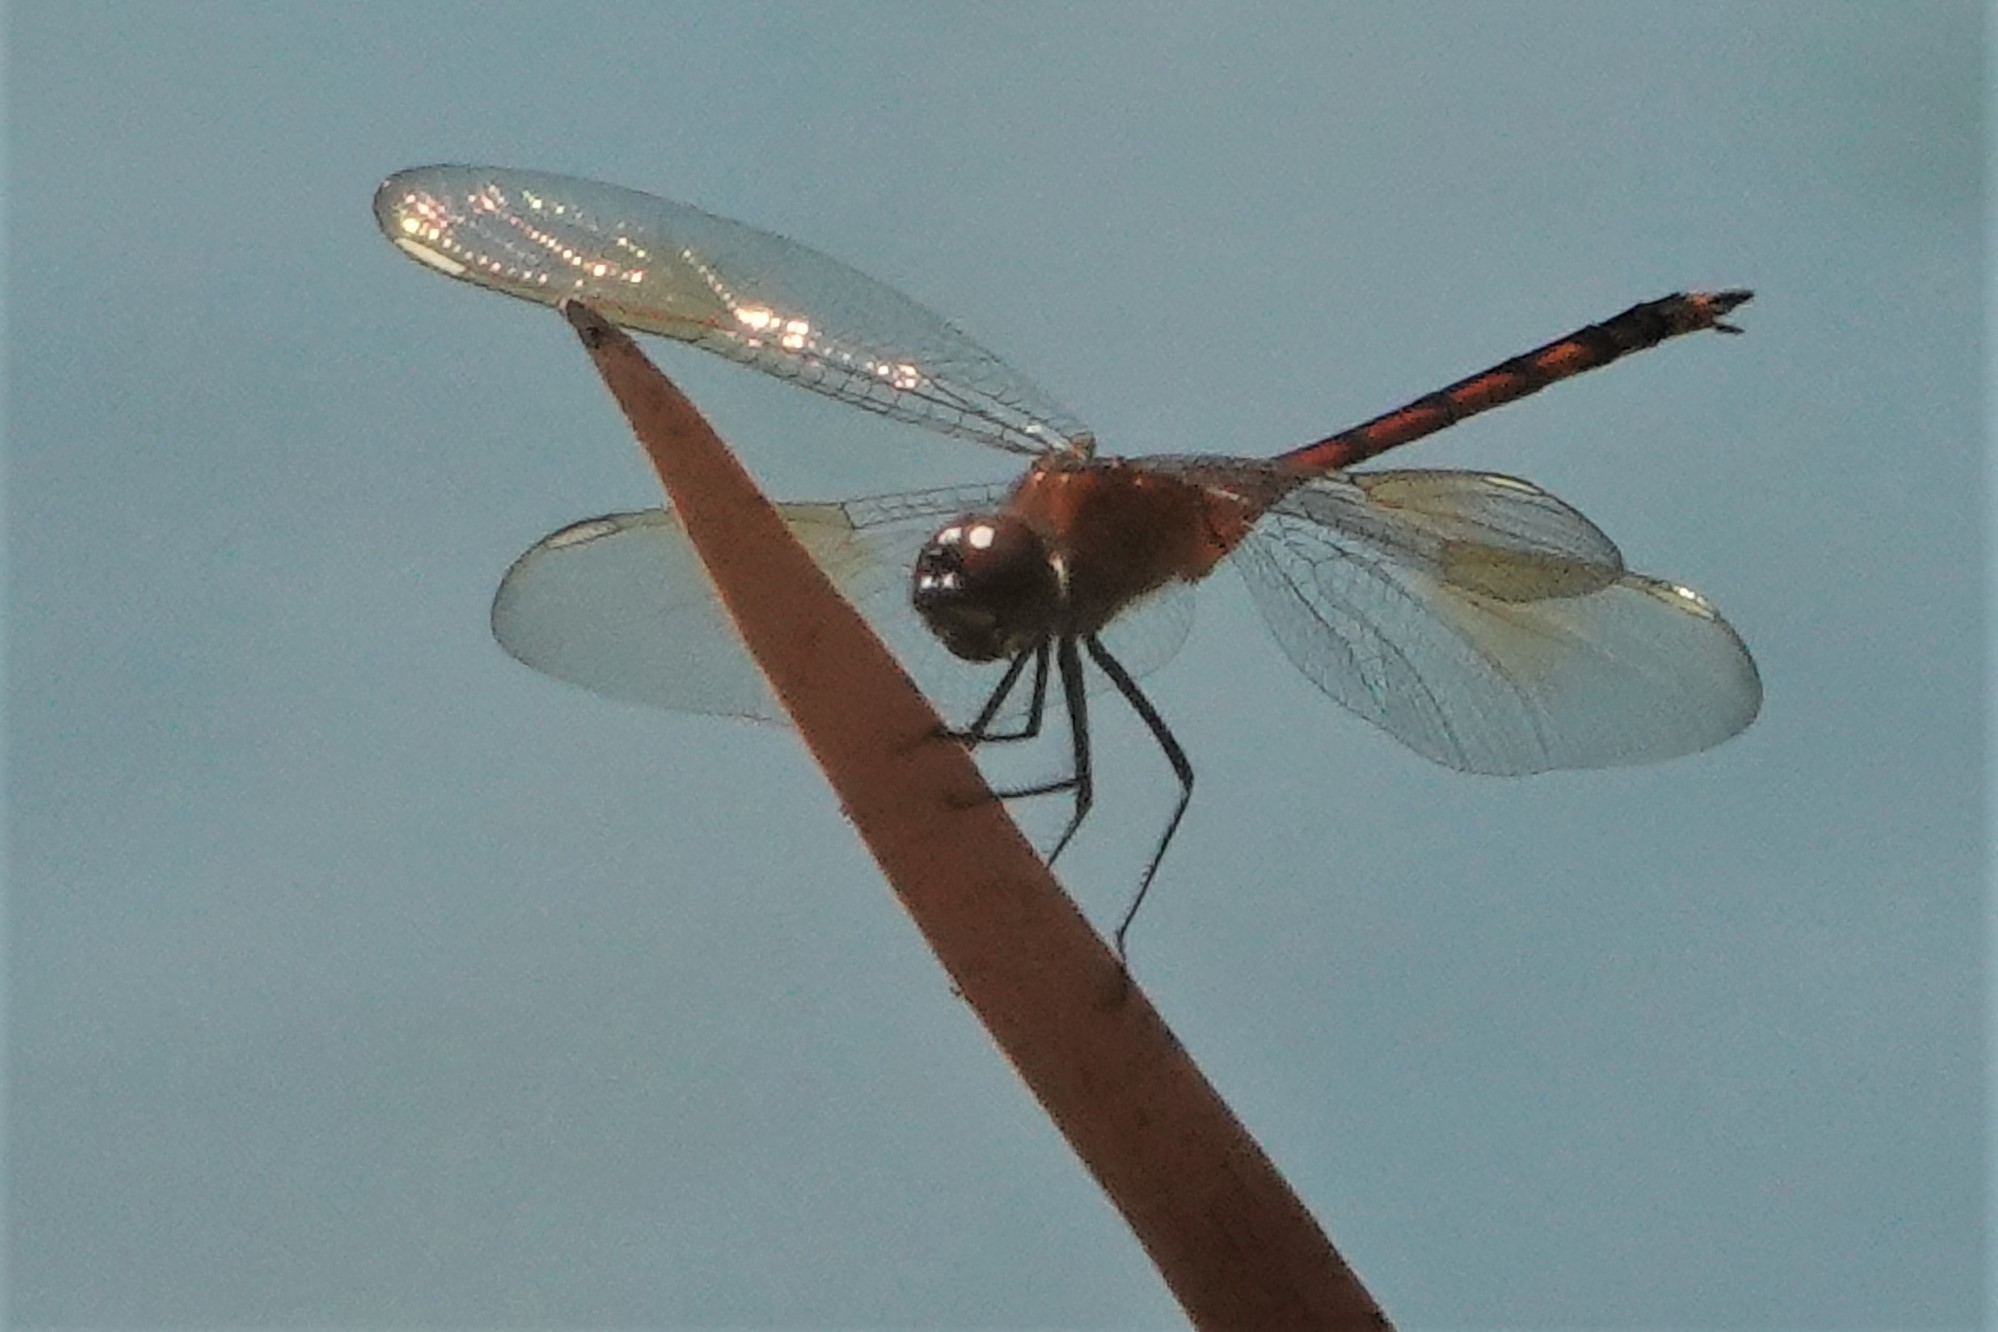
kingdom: Animalia
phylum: Arthropoda
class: Insecta
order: Odonata
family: Libellulidae
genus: Brachymesia
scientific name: Brachymesia gravida
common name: Four-spotted pennant
